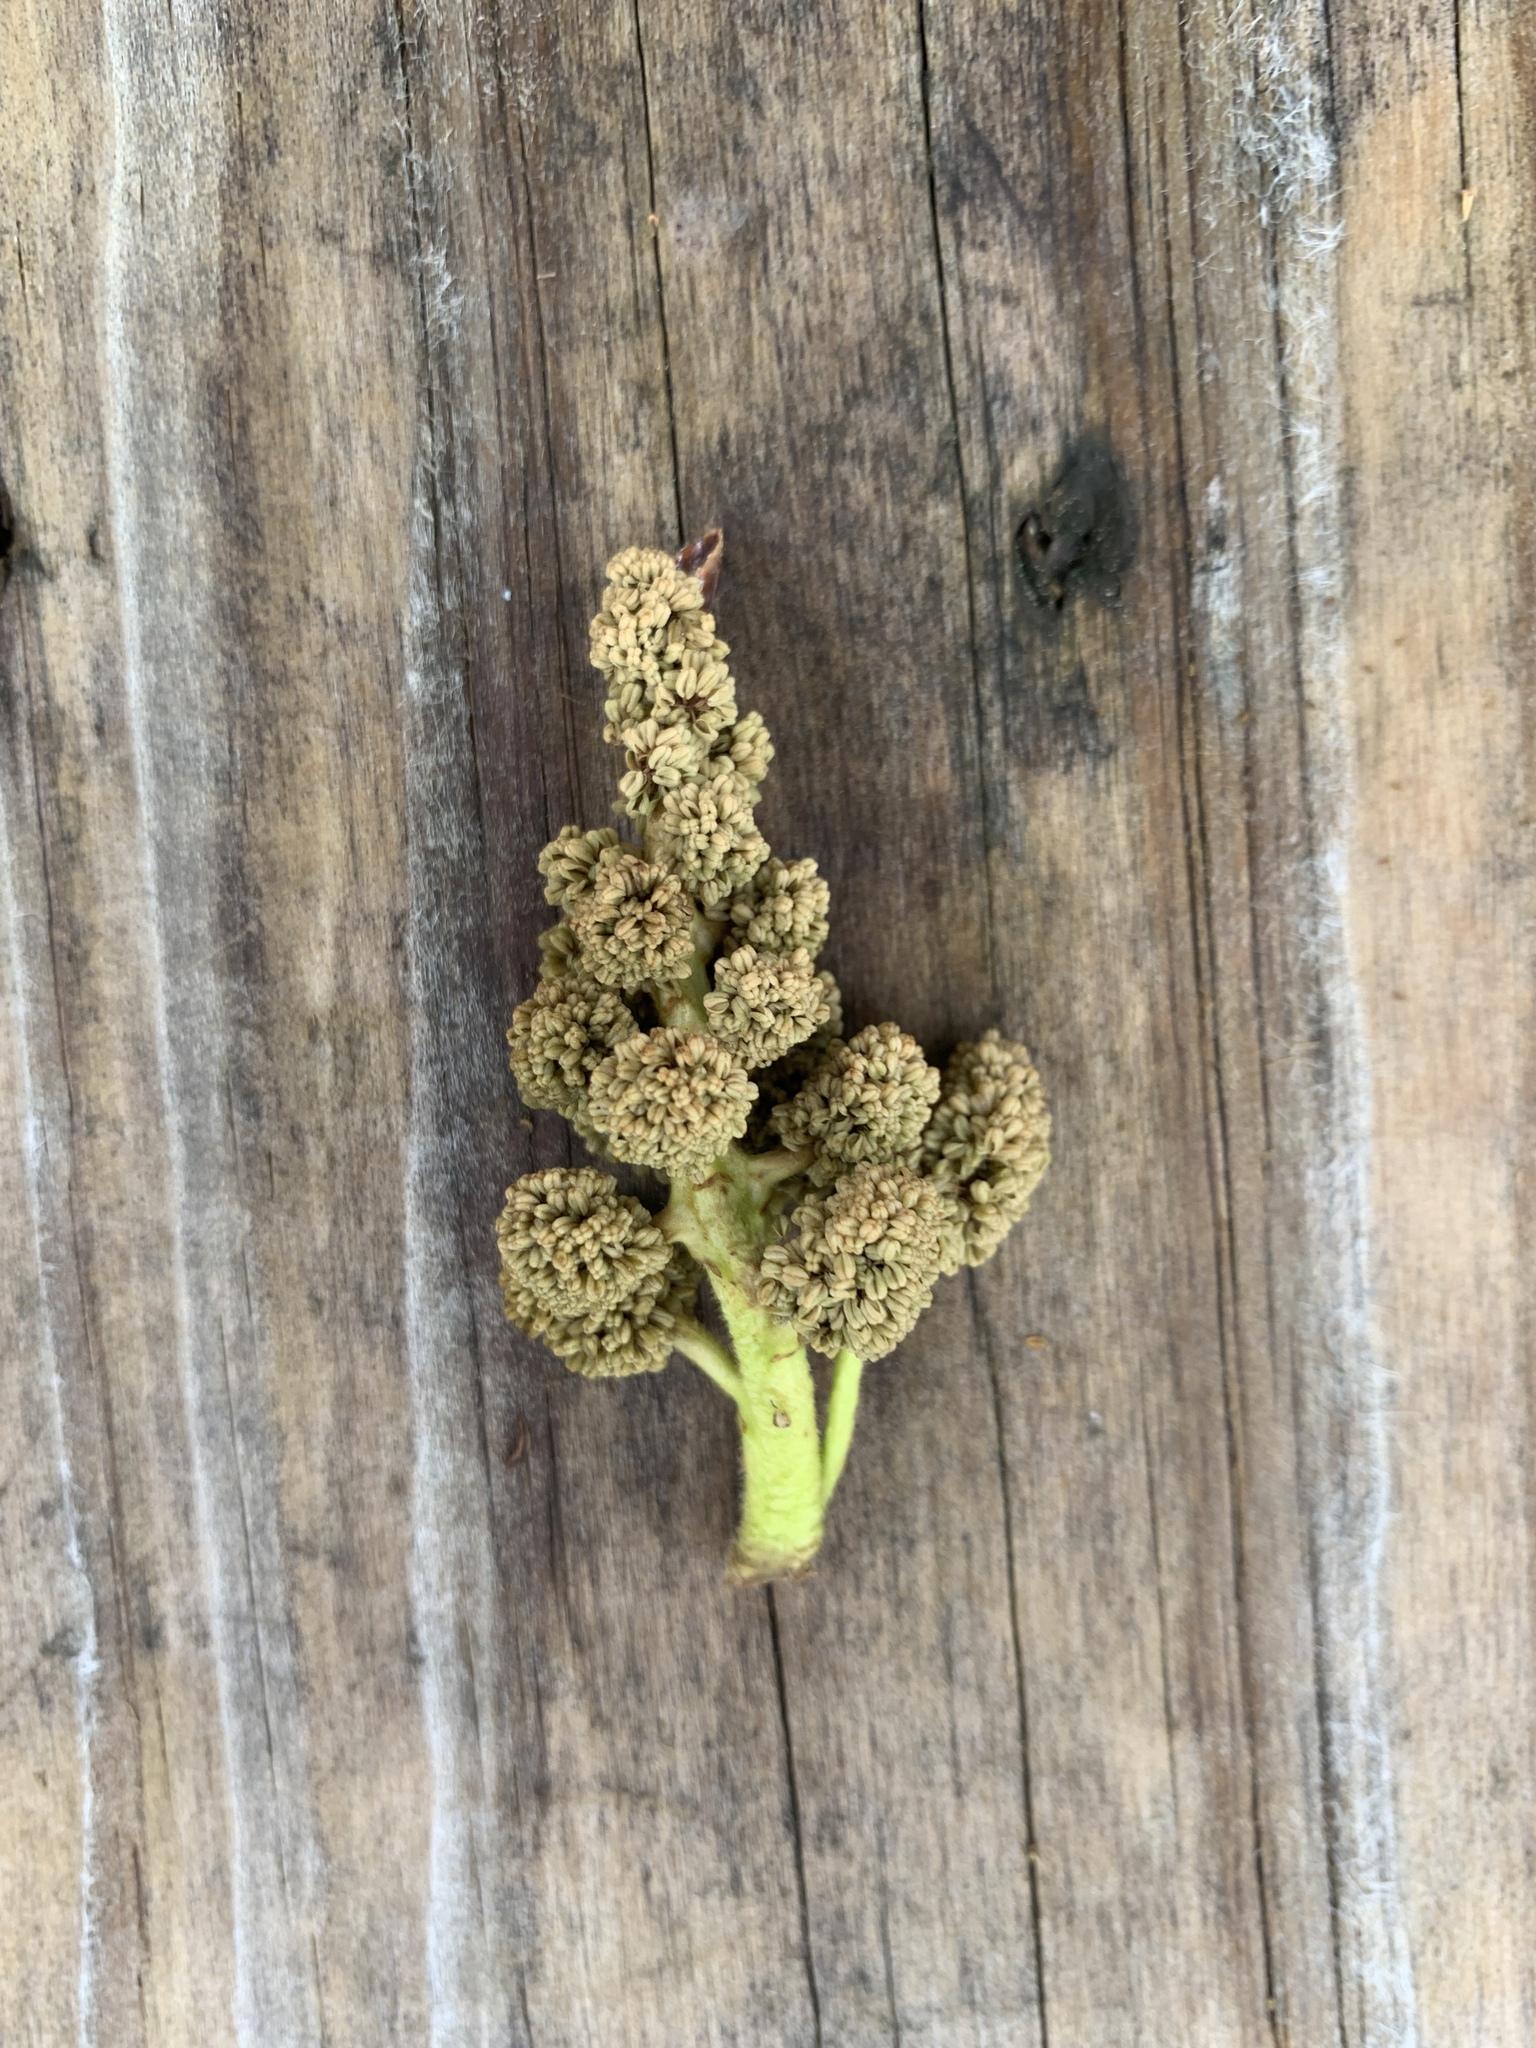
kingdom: Plantae
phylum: Tracheophyta
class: Magnoliopsida
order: Saxifragales
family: Altingiaceae
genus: Liquidambar
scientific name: Liquidambar styraciflua
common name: Sweet gum
